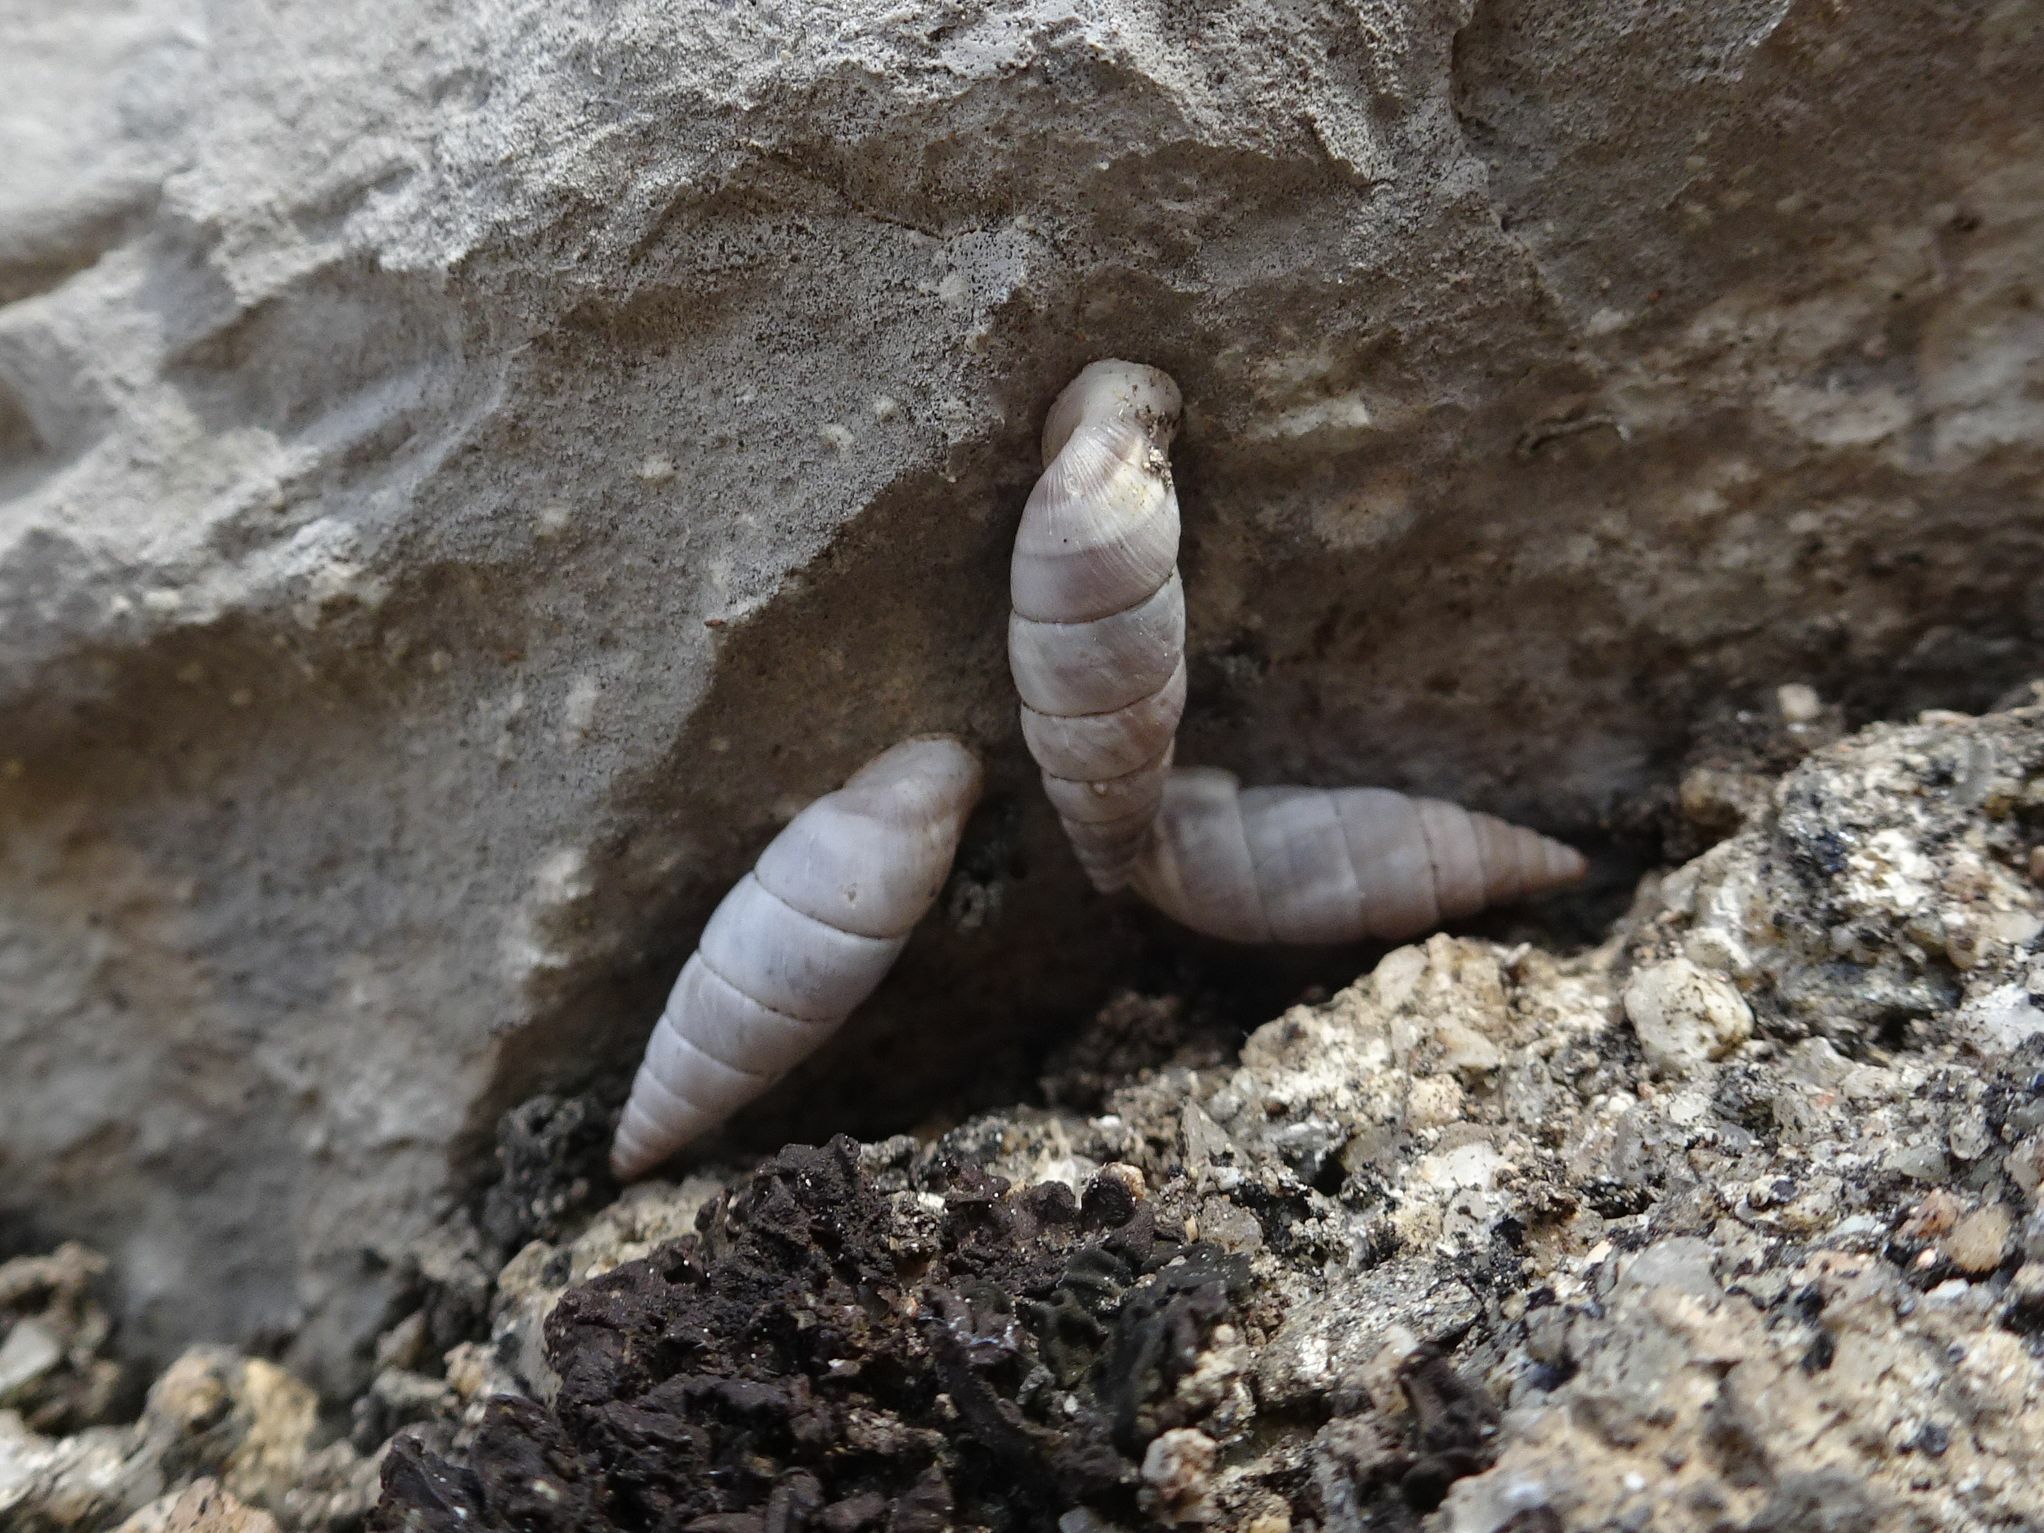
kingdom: Animalia
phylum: Mollusca
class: Gastropoda
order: Stylommatophora
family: Chondrinidae
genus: Solatopupa
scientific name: Solatopupa similis
